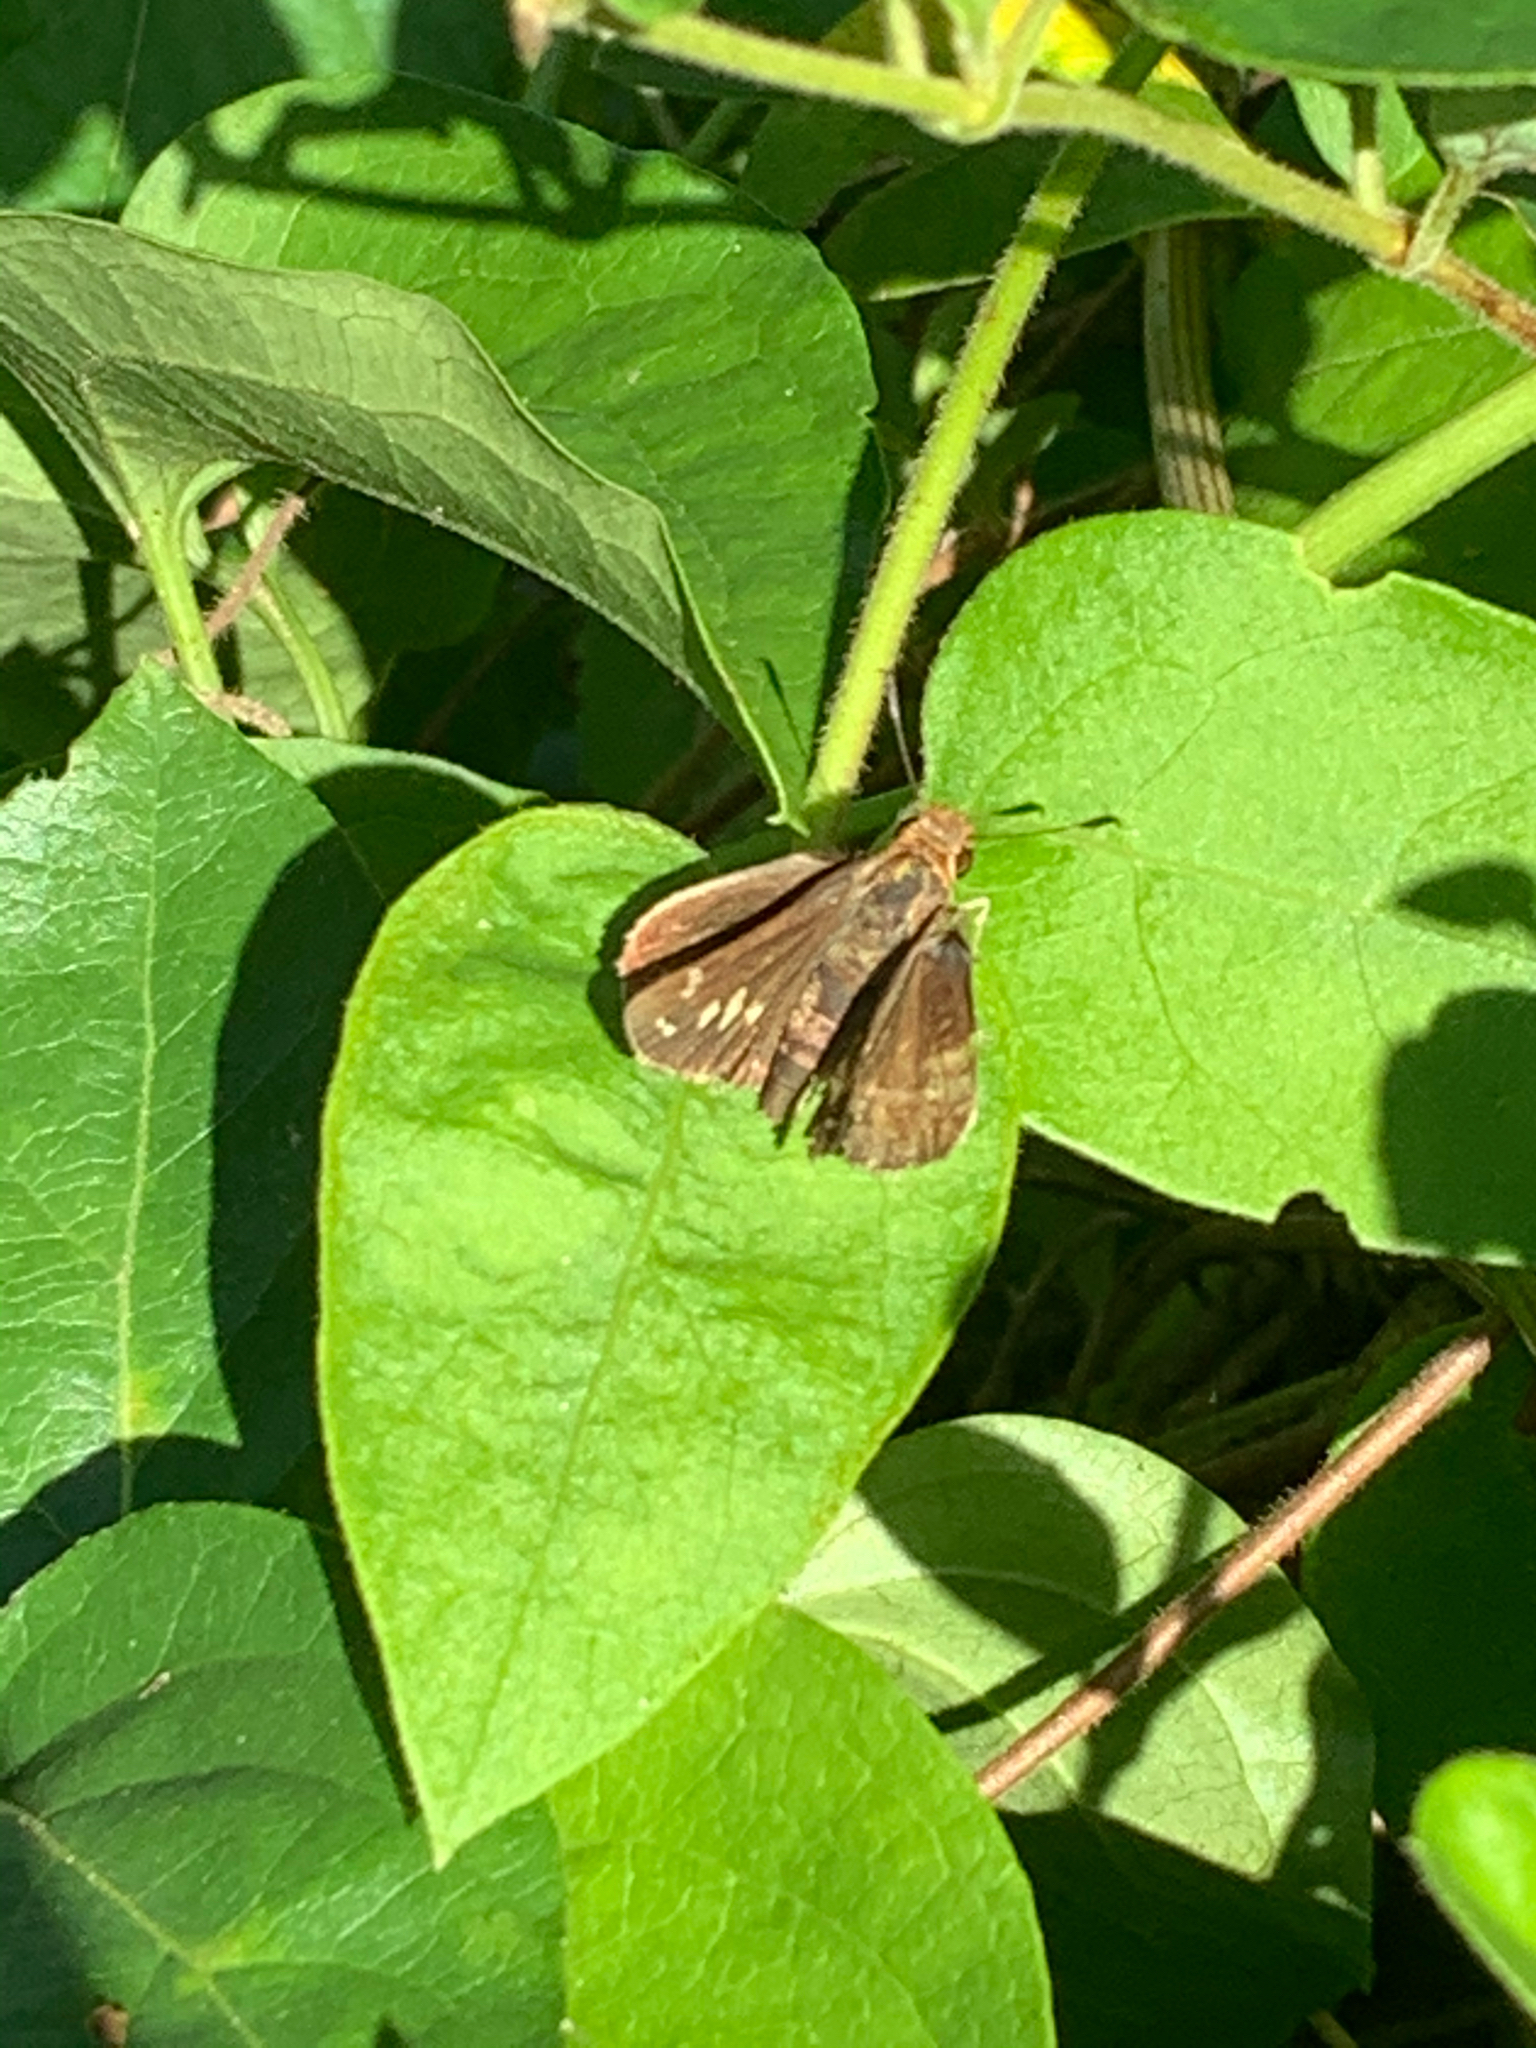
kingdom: Animalia
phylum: Arthropoda
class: Insecta
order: Lepidoptera
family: Hesperiidae
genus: Lon
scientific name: Lon zabulon
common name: Zabulon skipper
